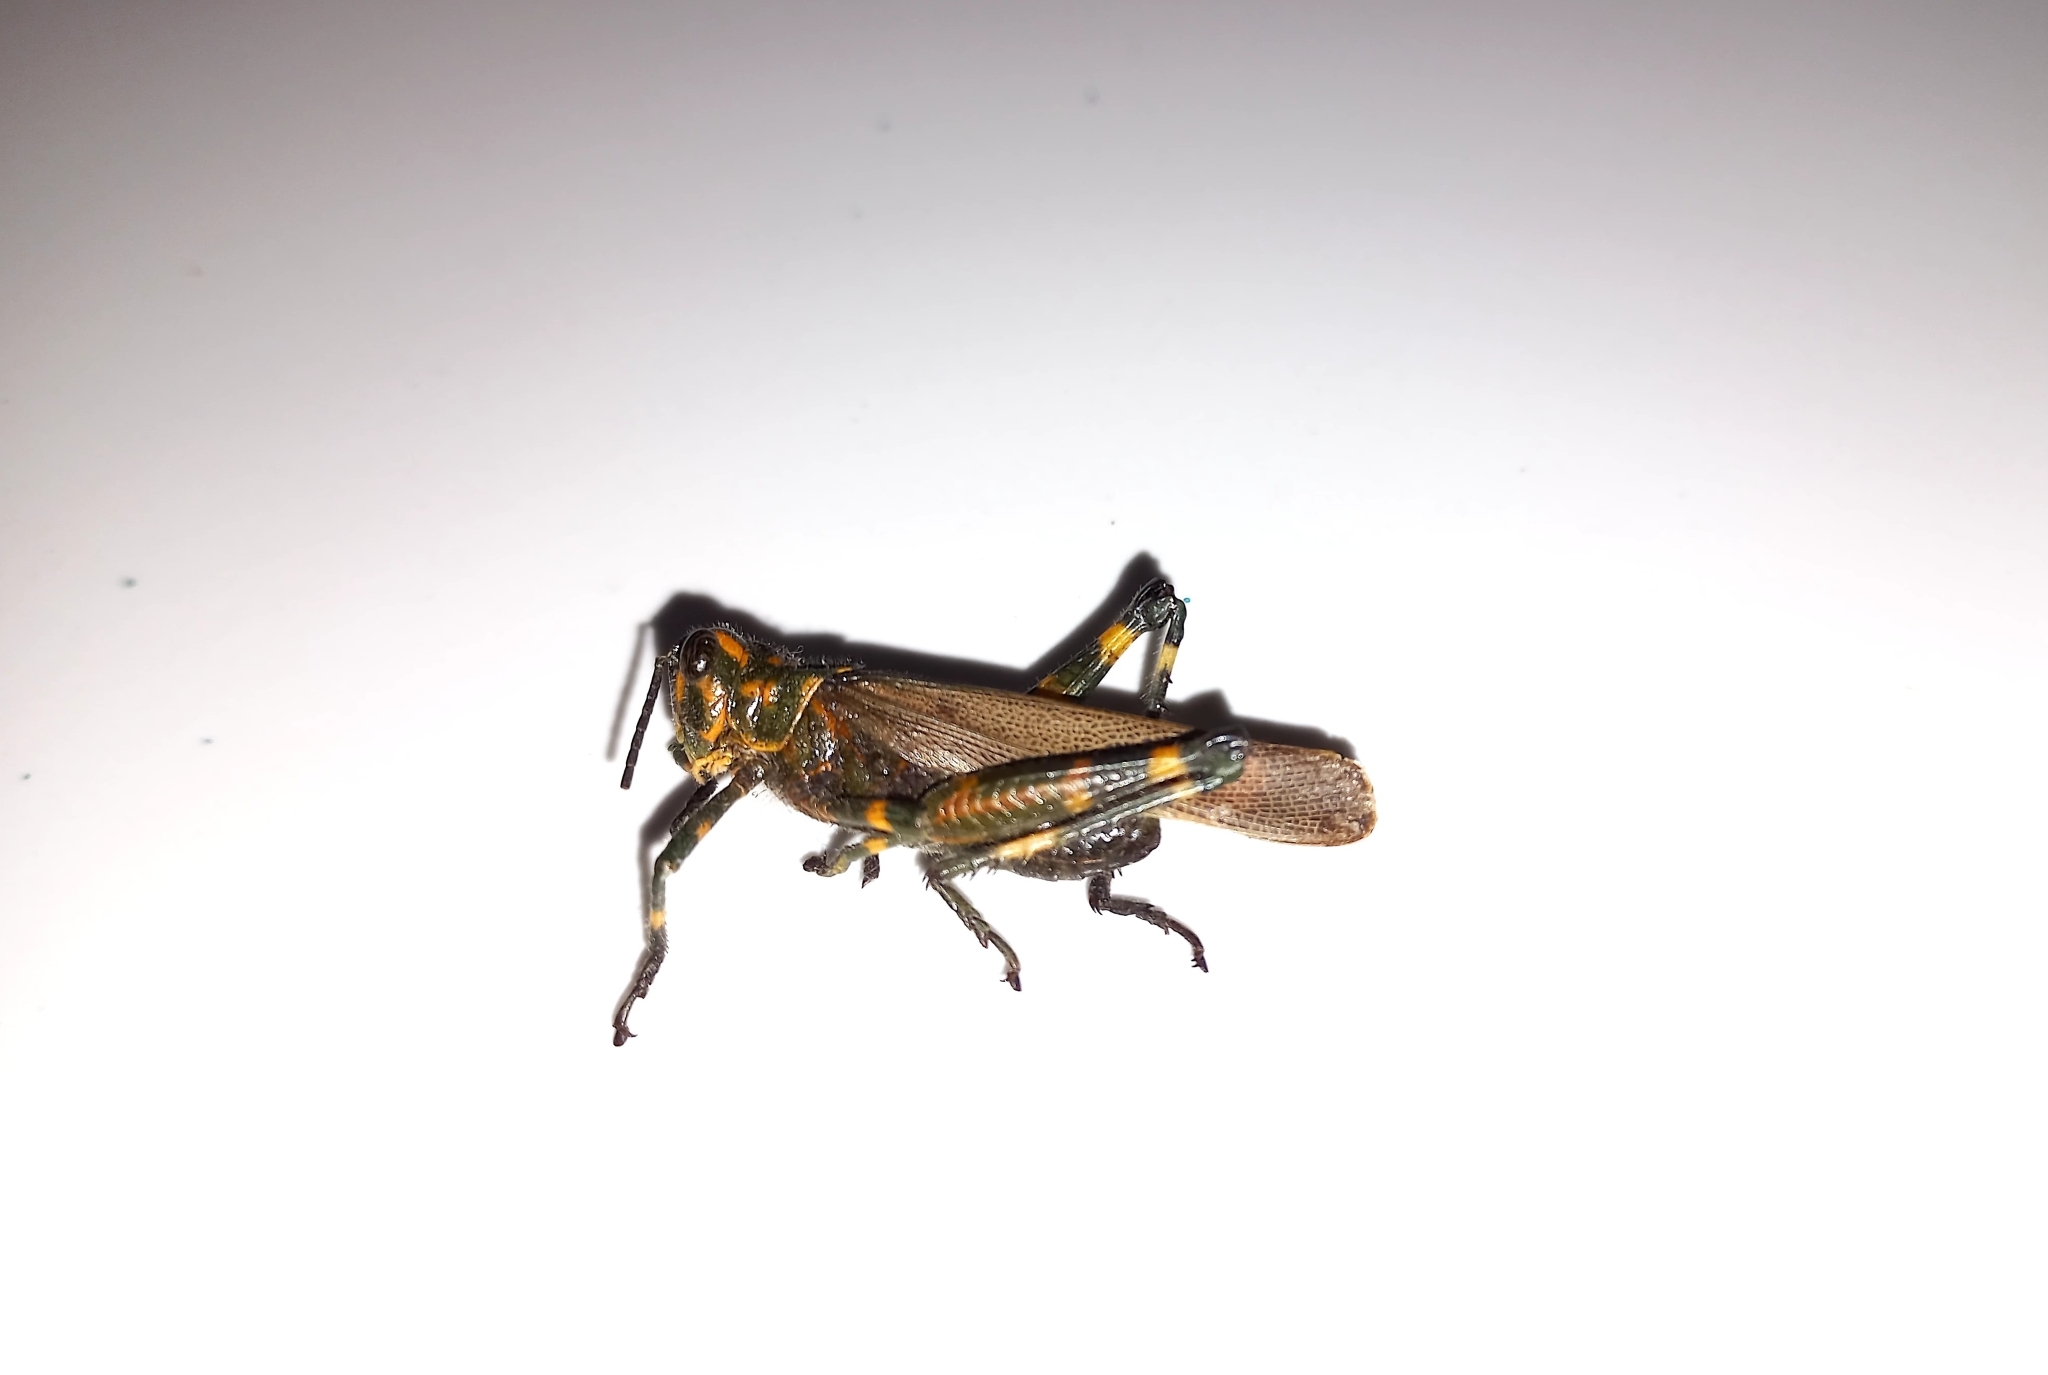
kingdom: Animalia
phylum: Arthropoda
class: Insecta
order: Orthoptera
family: Romaleidae
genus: Chromacris
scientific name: Chromacris speciosa
